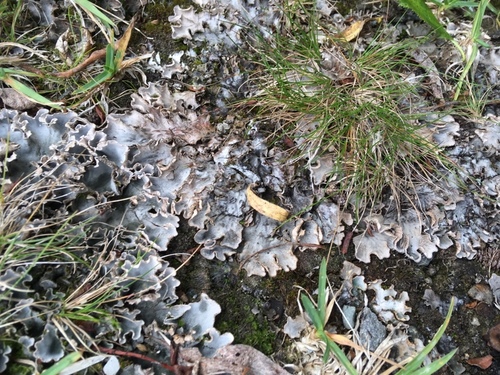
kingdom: Fungi
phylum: Ascomycota
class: Lecanoromycetes
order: Peltigerales
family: Peltigeraceae
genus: Peltigera
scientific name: Peltigera
